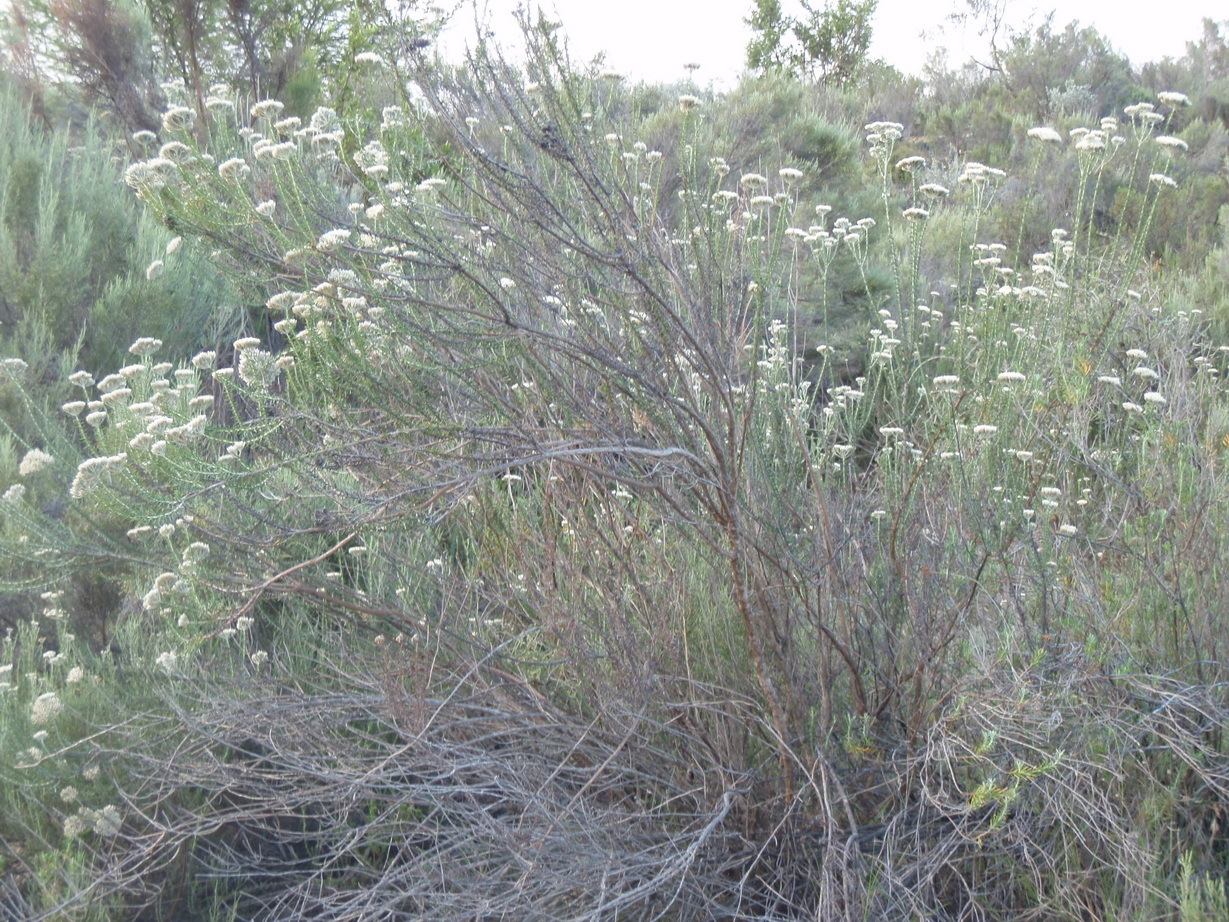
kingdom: Plantae
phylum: Tracheophyta
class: Magnoliopsida
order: Asterales
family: Asteraceae
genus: Metalasia
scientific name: Metalasia densa
